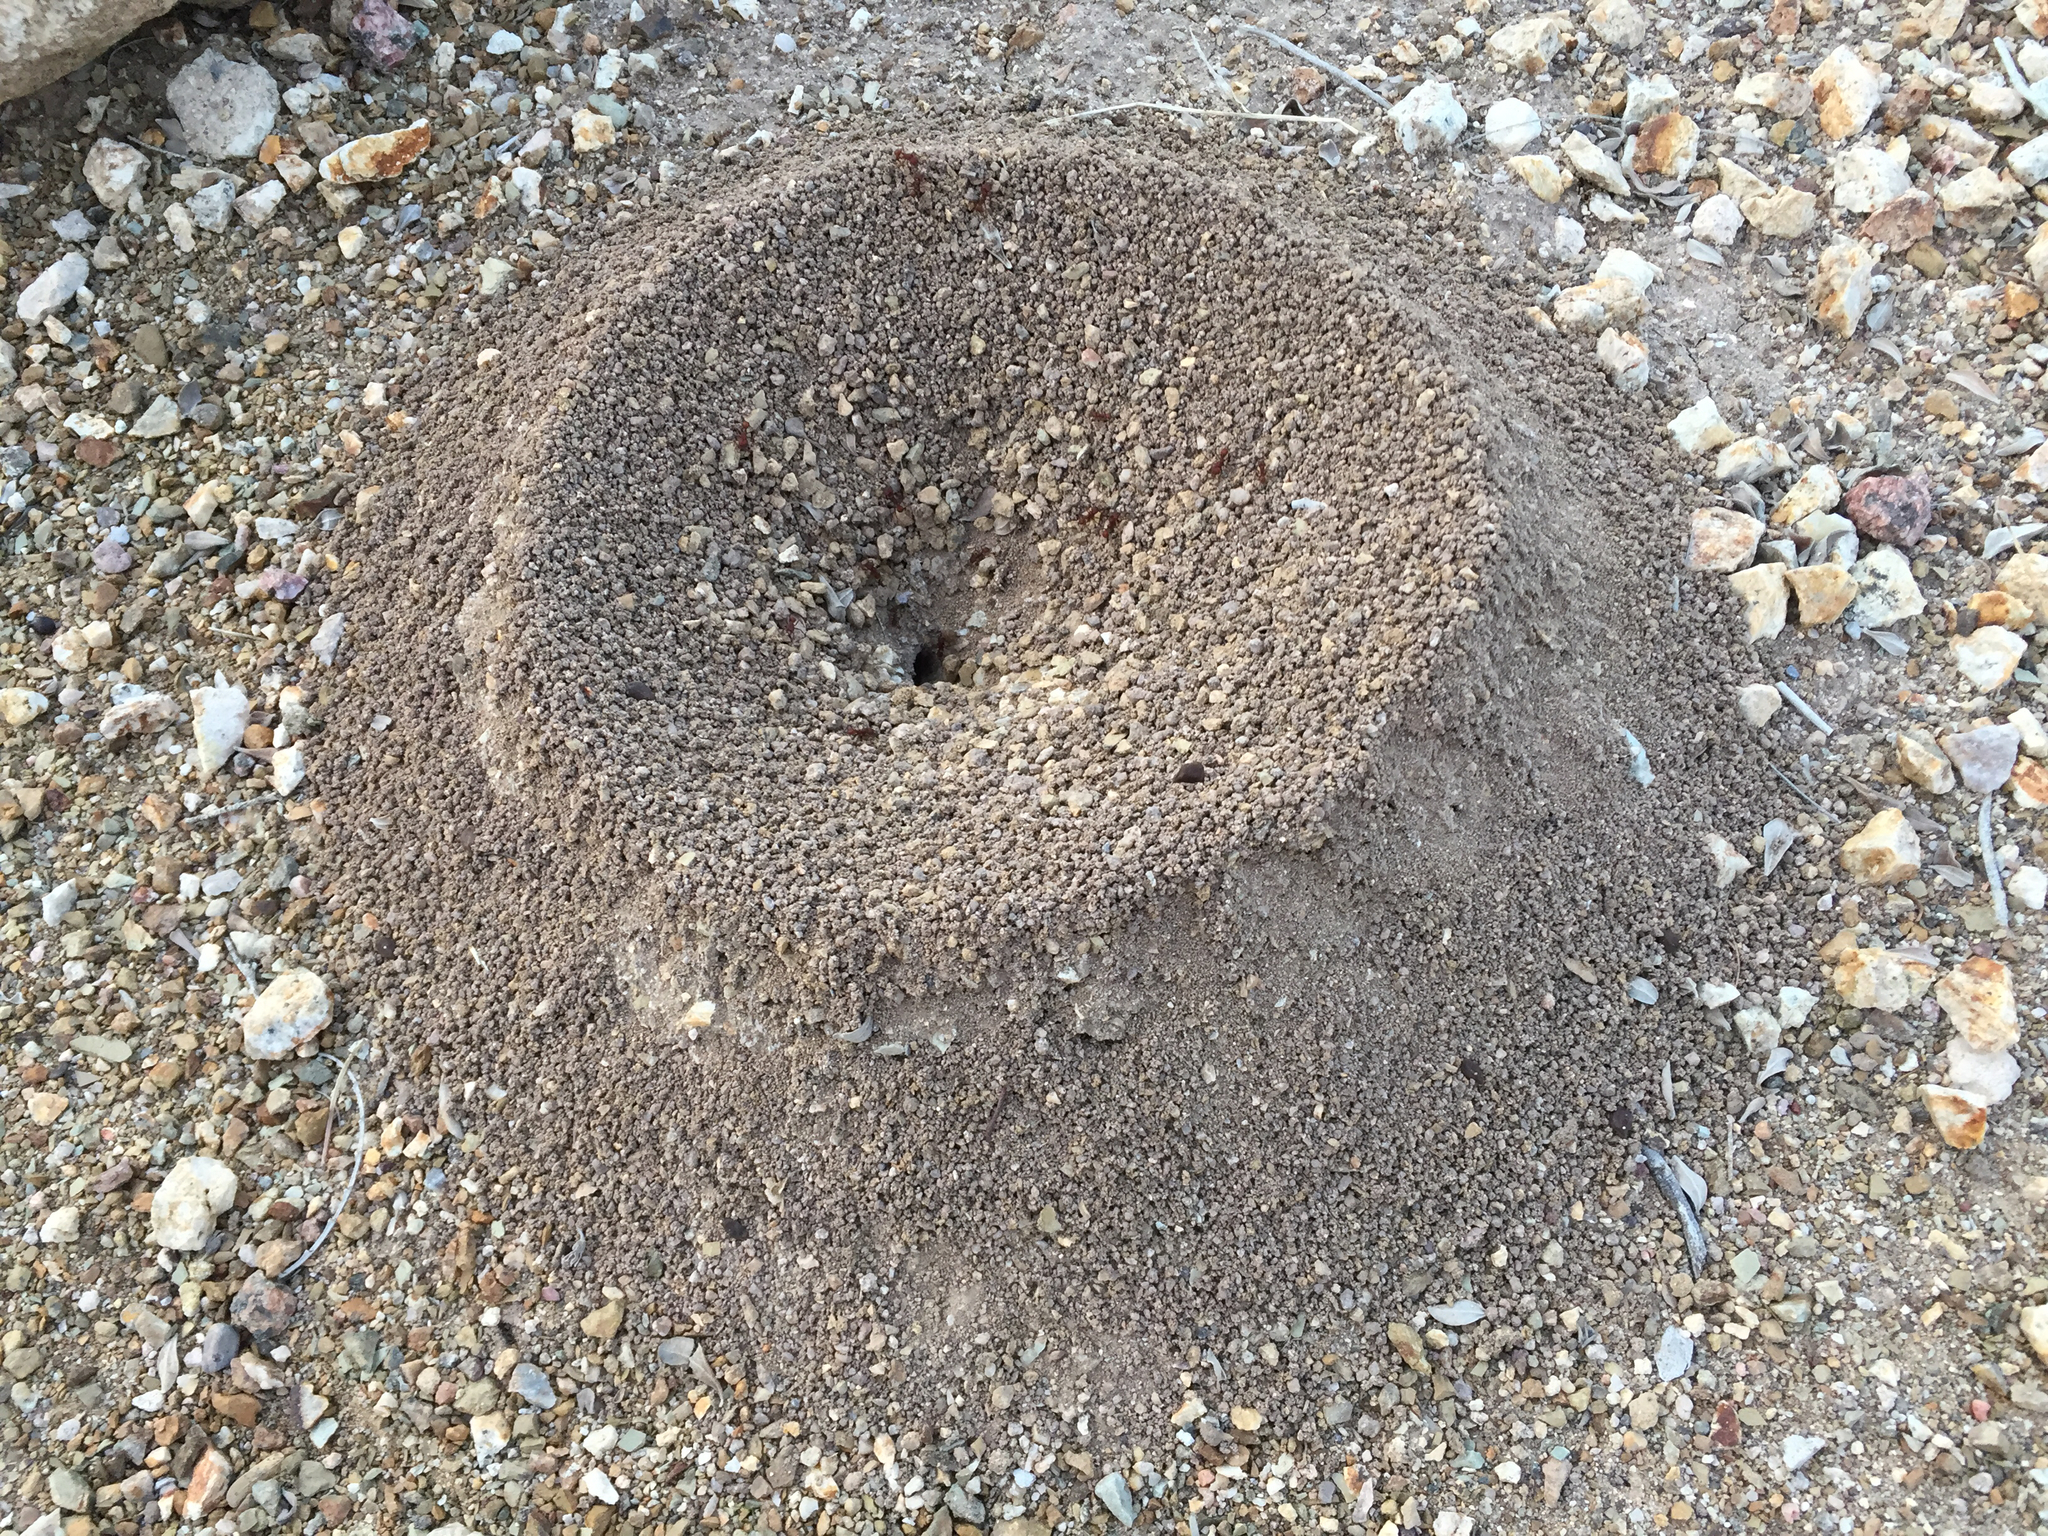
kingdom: Animalia
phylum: Arthropoda
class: Insecta
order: Hymenoptera
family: Formicidae
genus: Acromyrmex
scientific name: Acromyrmex versicolor
